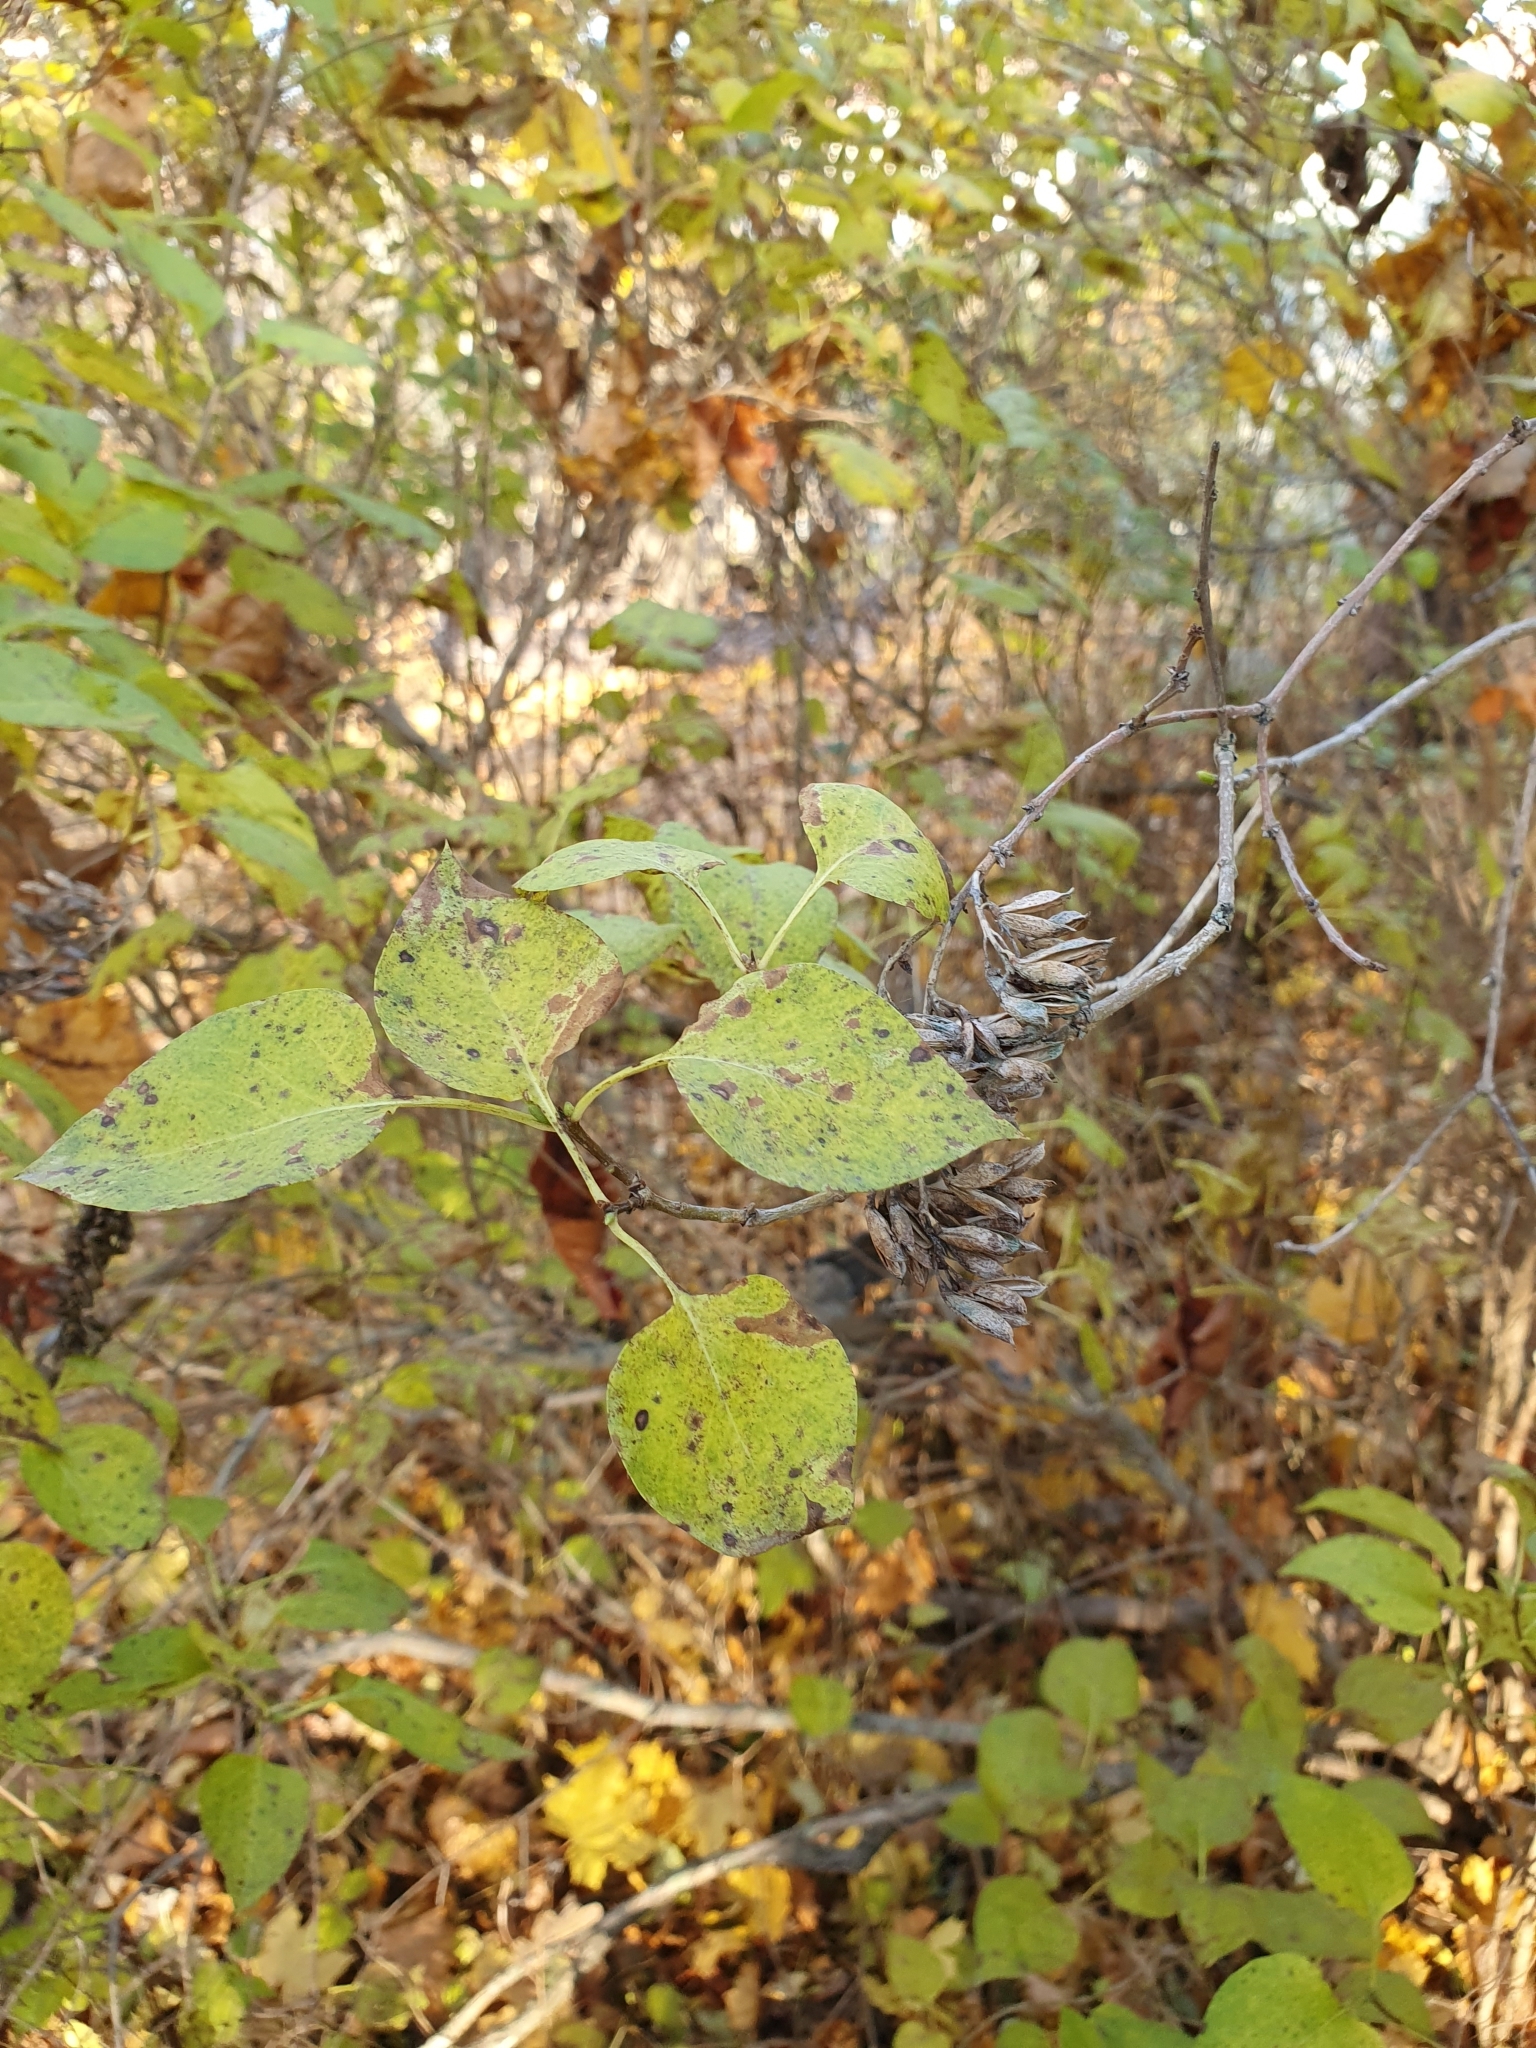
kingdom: Plantae
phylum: Tracheophyta
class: Magnoliopsida
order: Lamiales
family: Oleaceae
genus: Syringa
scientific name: Syringa vulgaris
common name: Common lilac
